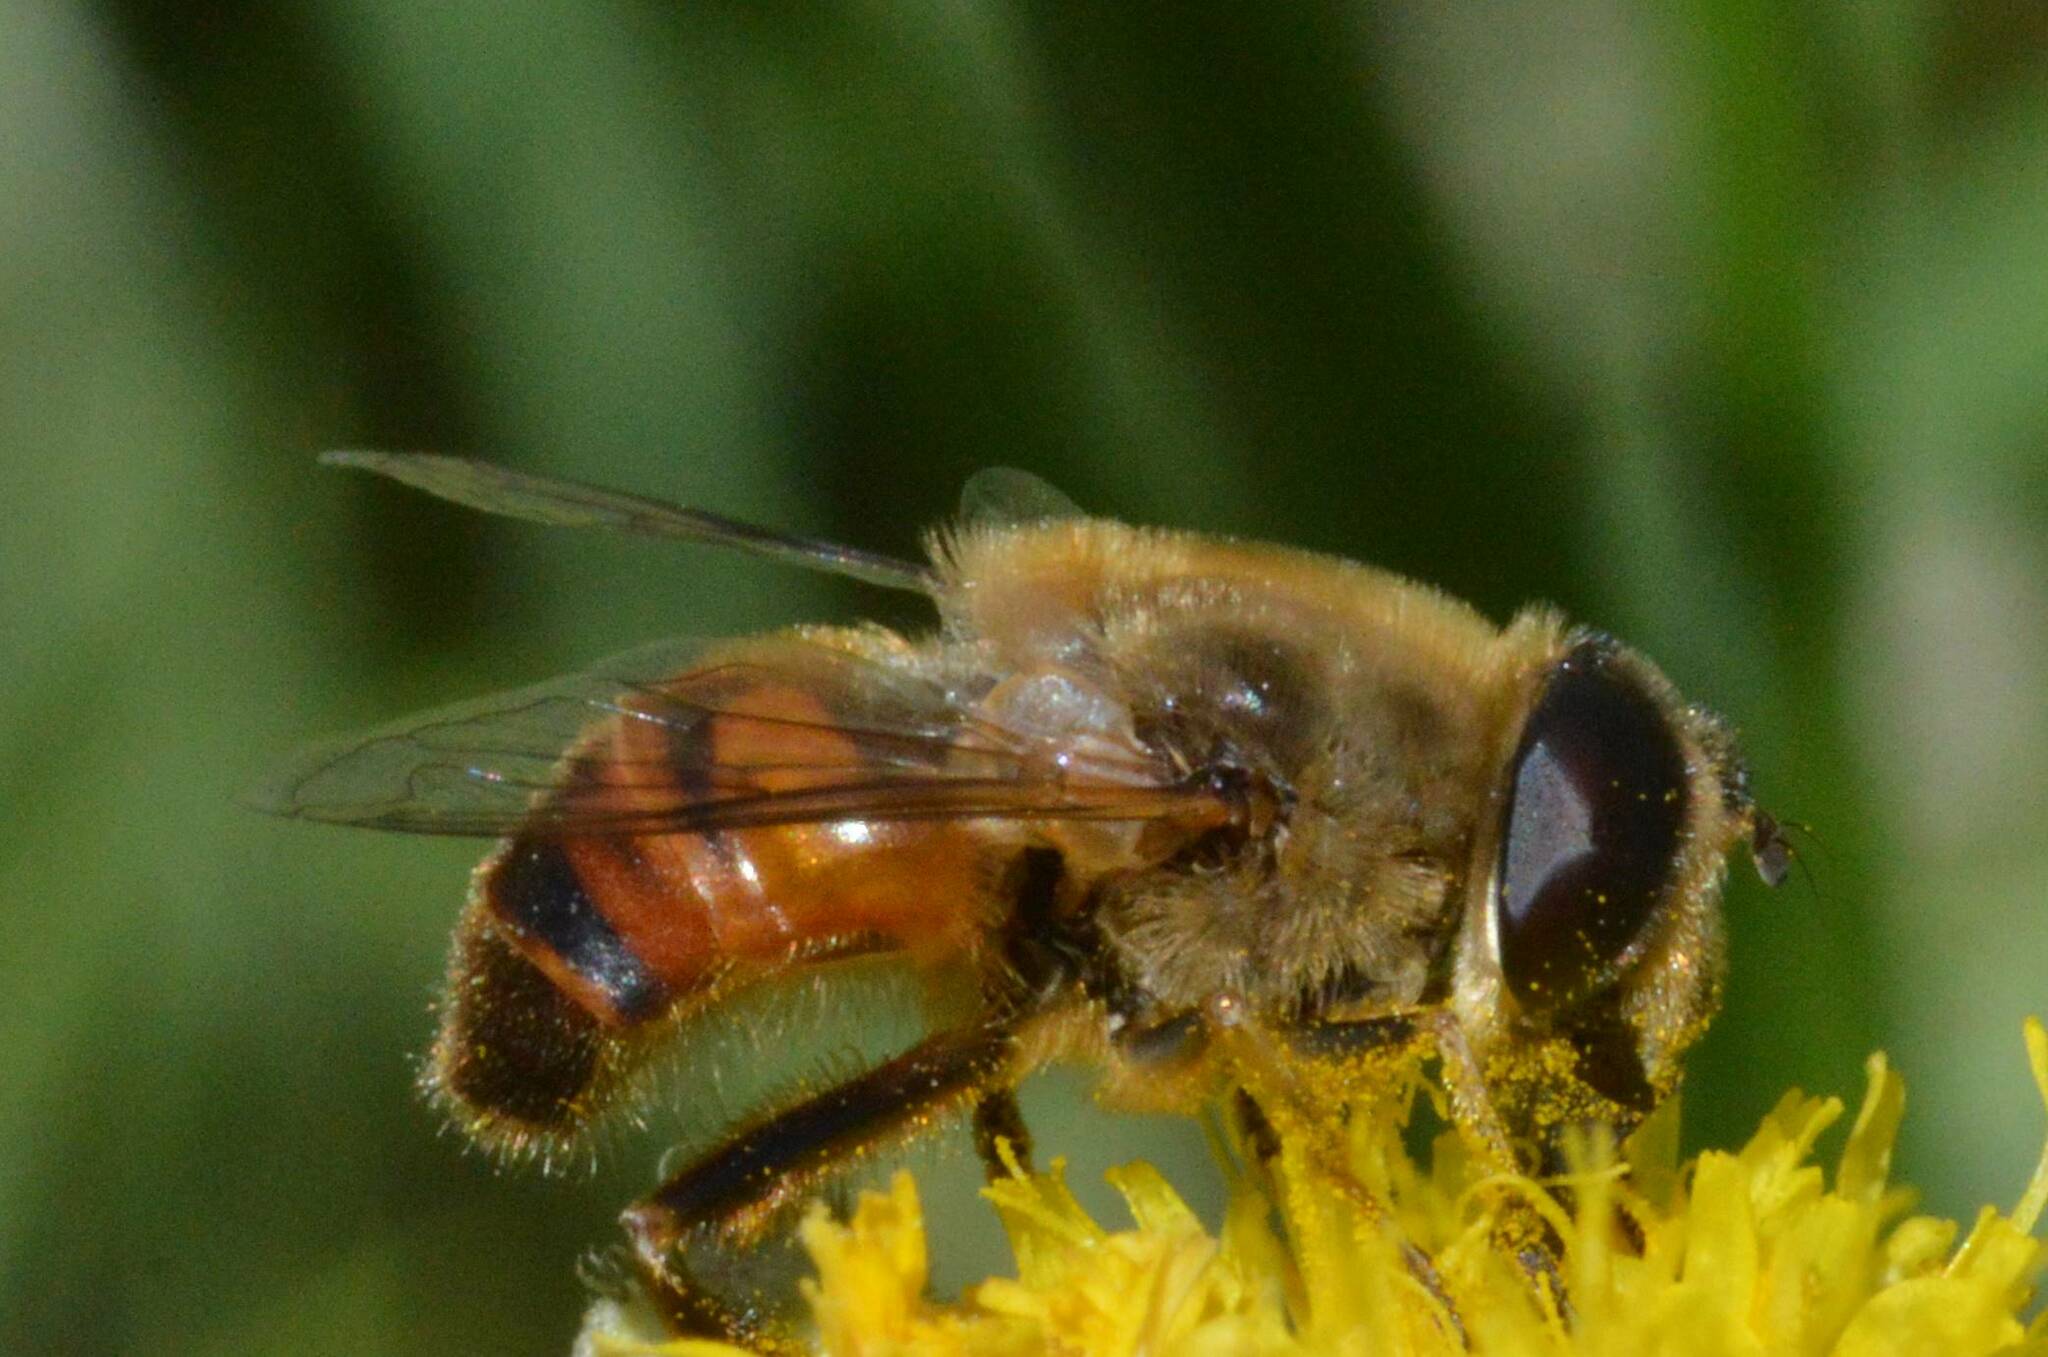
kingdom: Animalia
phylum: Arthropoda
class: Insecta
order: Diptera
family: Syrphidae
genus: Eristalis
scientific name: Eristalis tenax
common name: Drone fly
